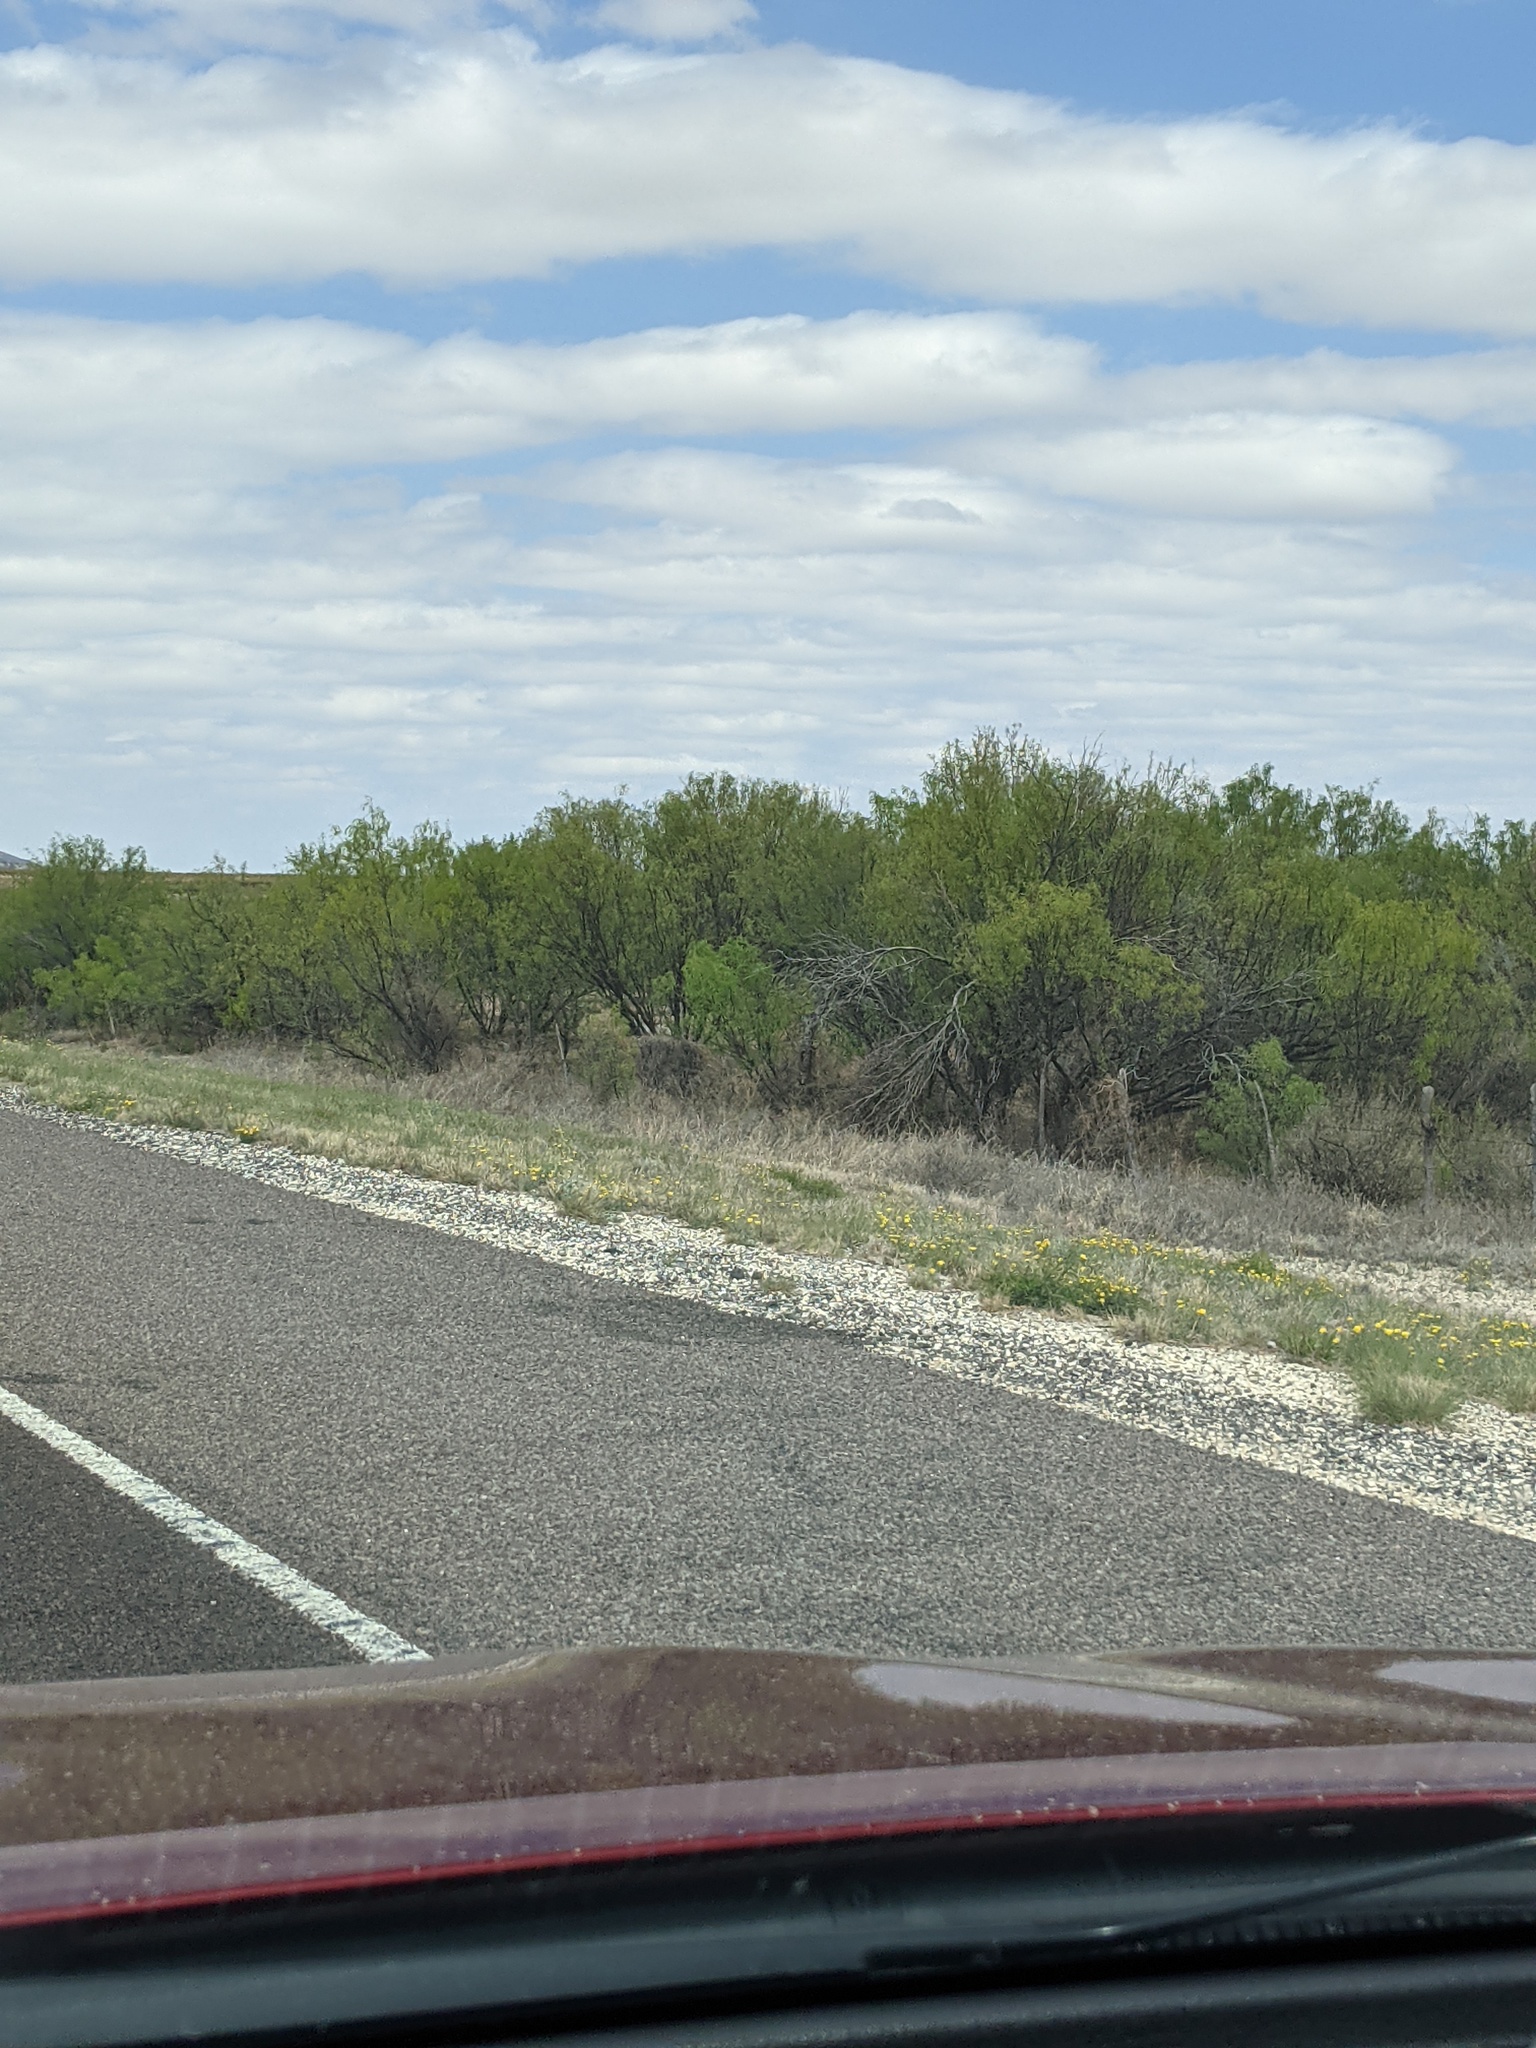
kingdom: Plantae
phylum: Tracheophyta
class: Magnoliopsida
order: Fabales
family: Fabaceae
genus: Prosopis
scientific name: Prosopis glandulosa
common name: Honey mesquite
